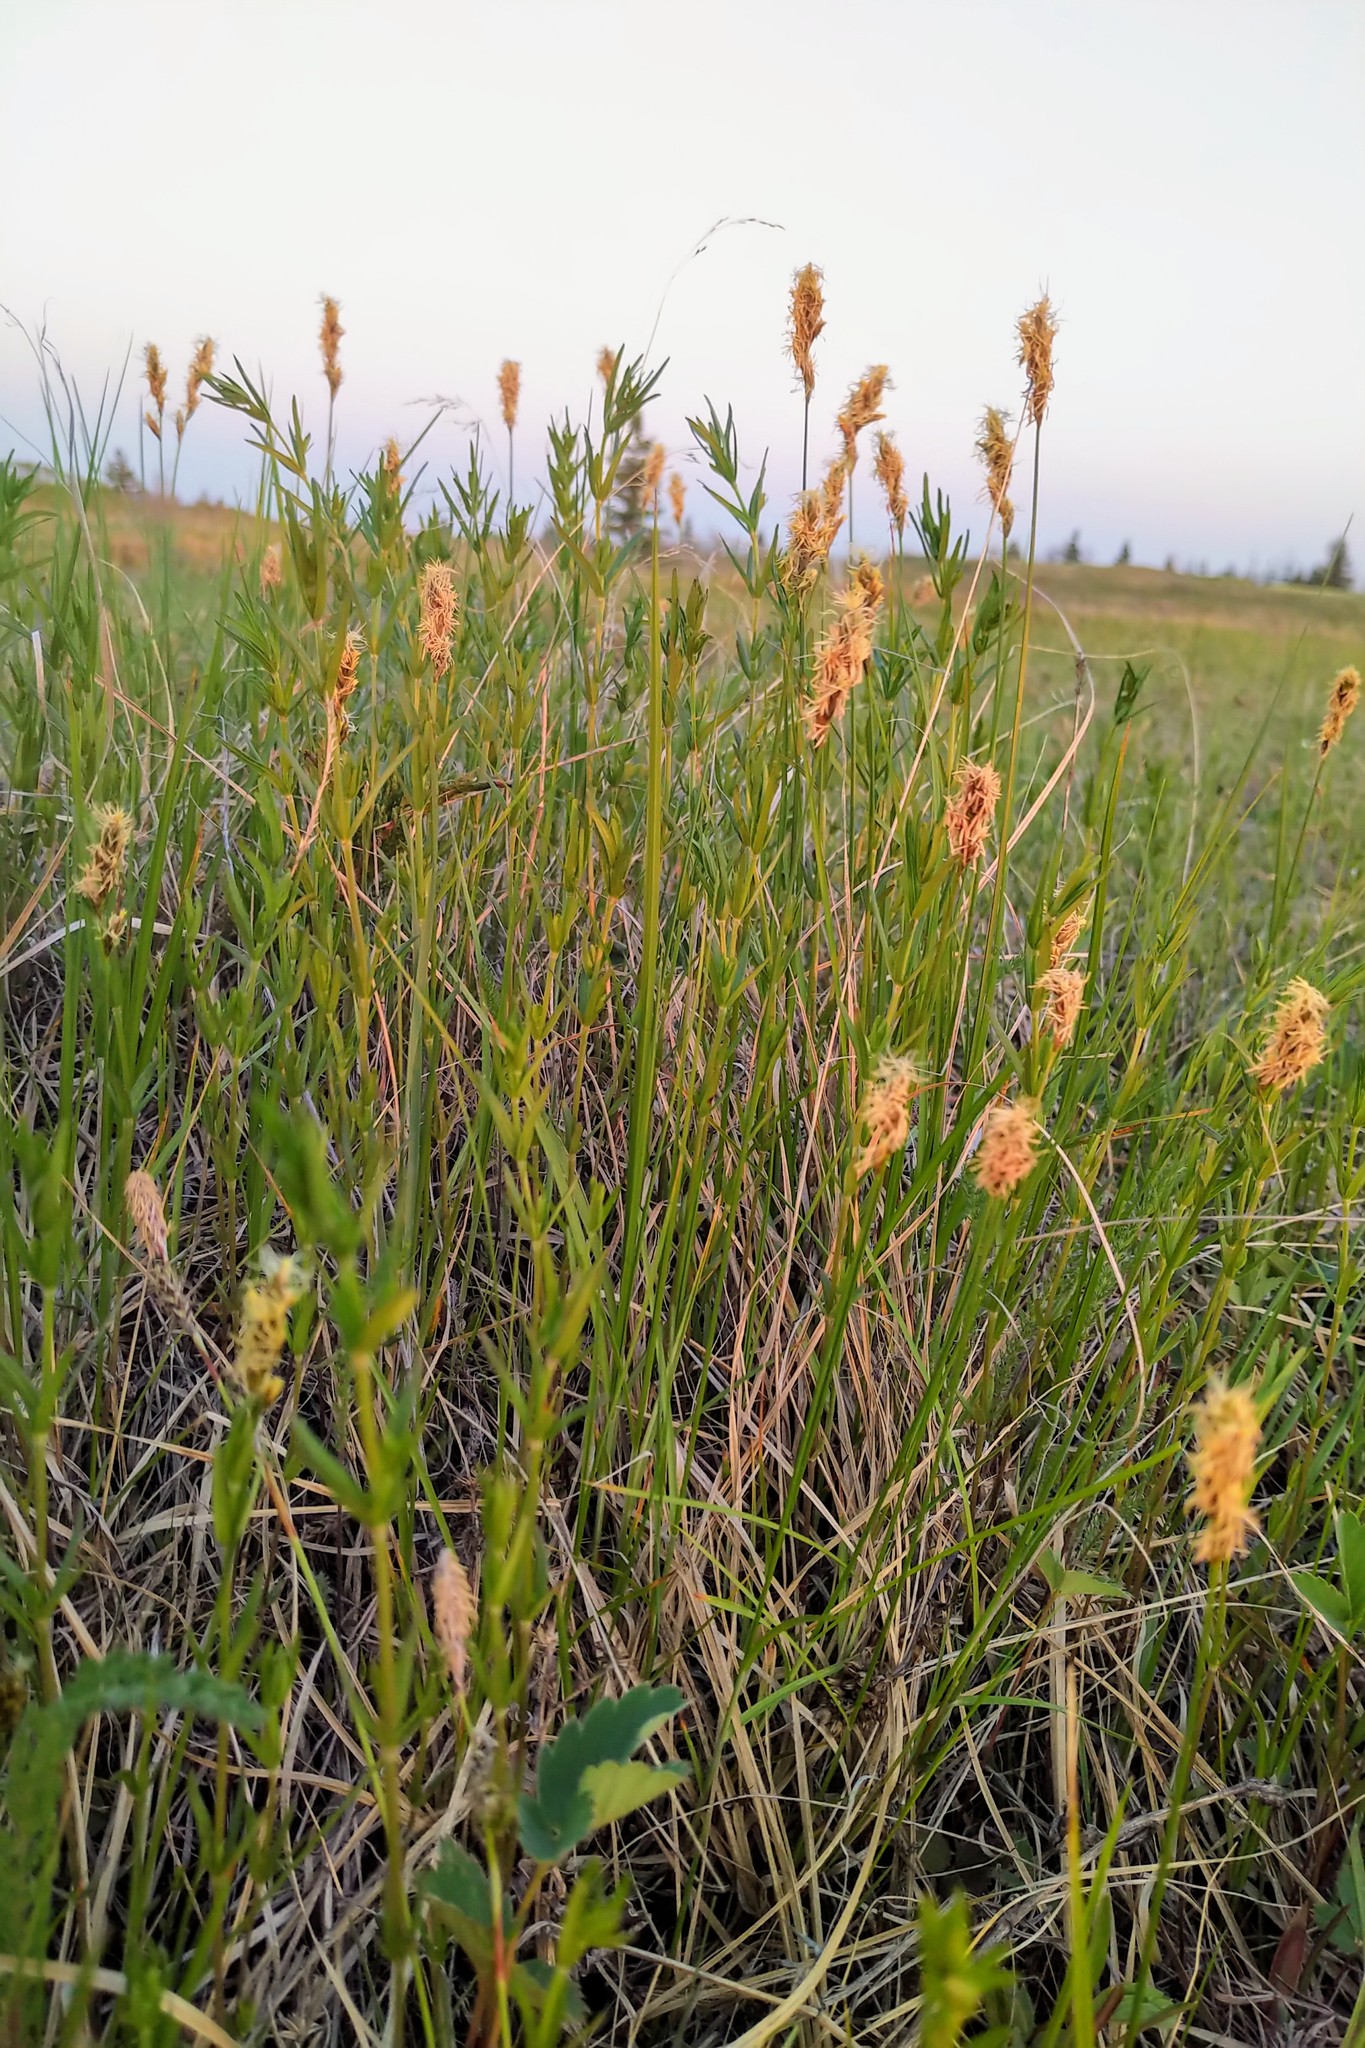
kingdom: Plantae
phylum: Tracheophyta
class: Liliopsida
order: Poales
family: Cyperaceae
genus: Carex
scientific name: Carex praegracilis
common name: Black creeper sedge
